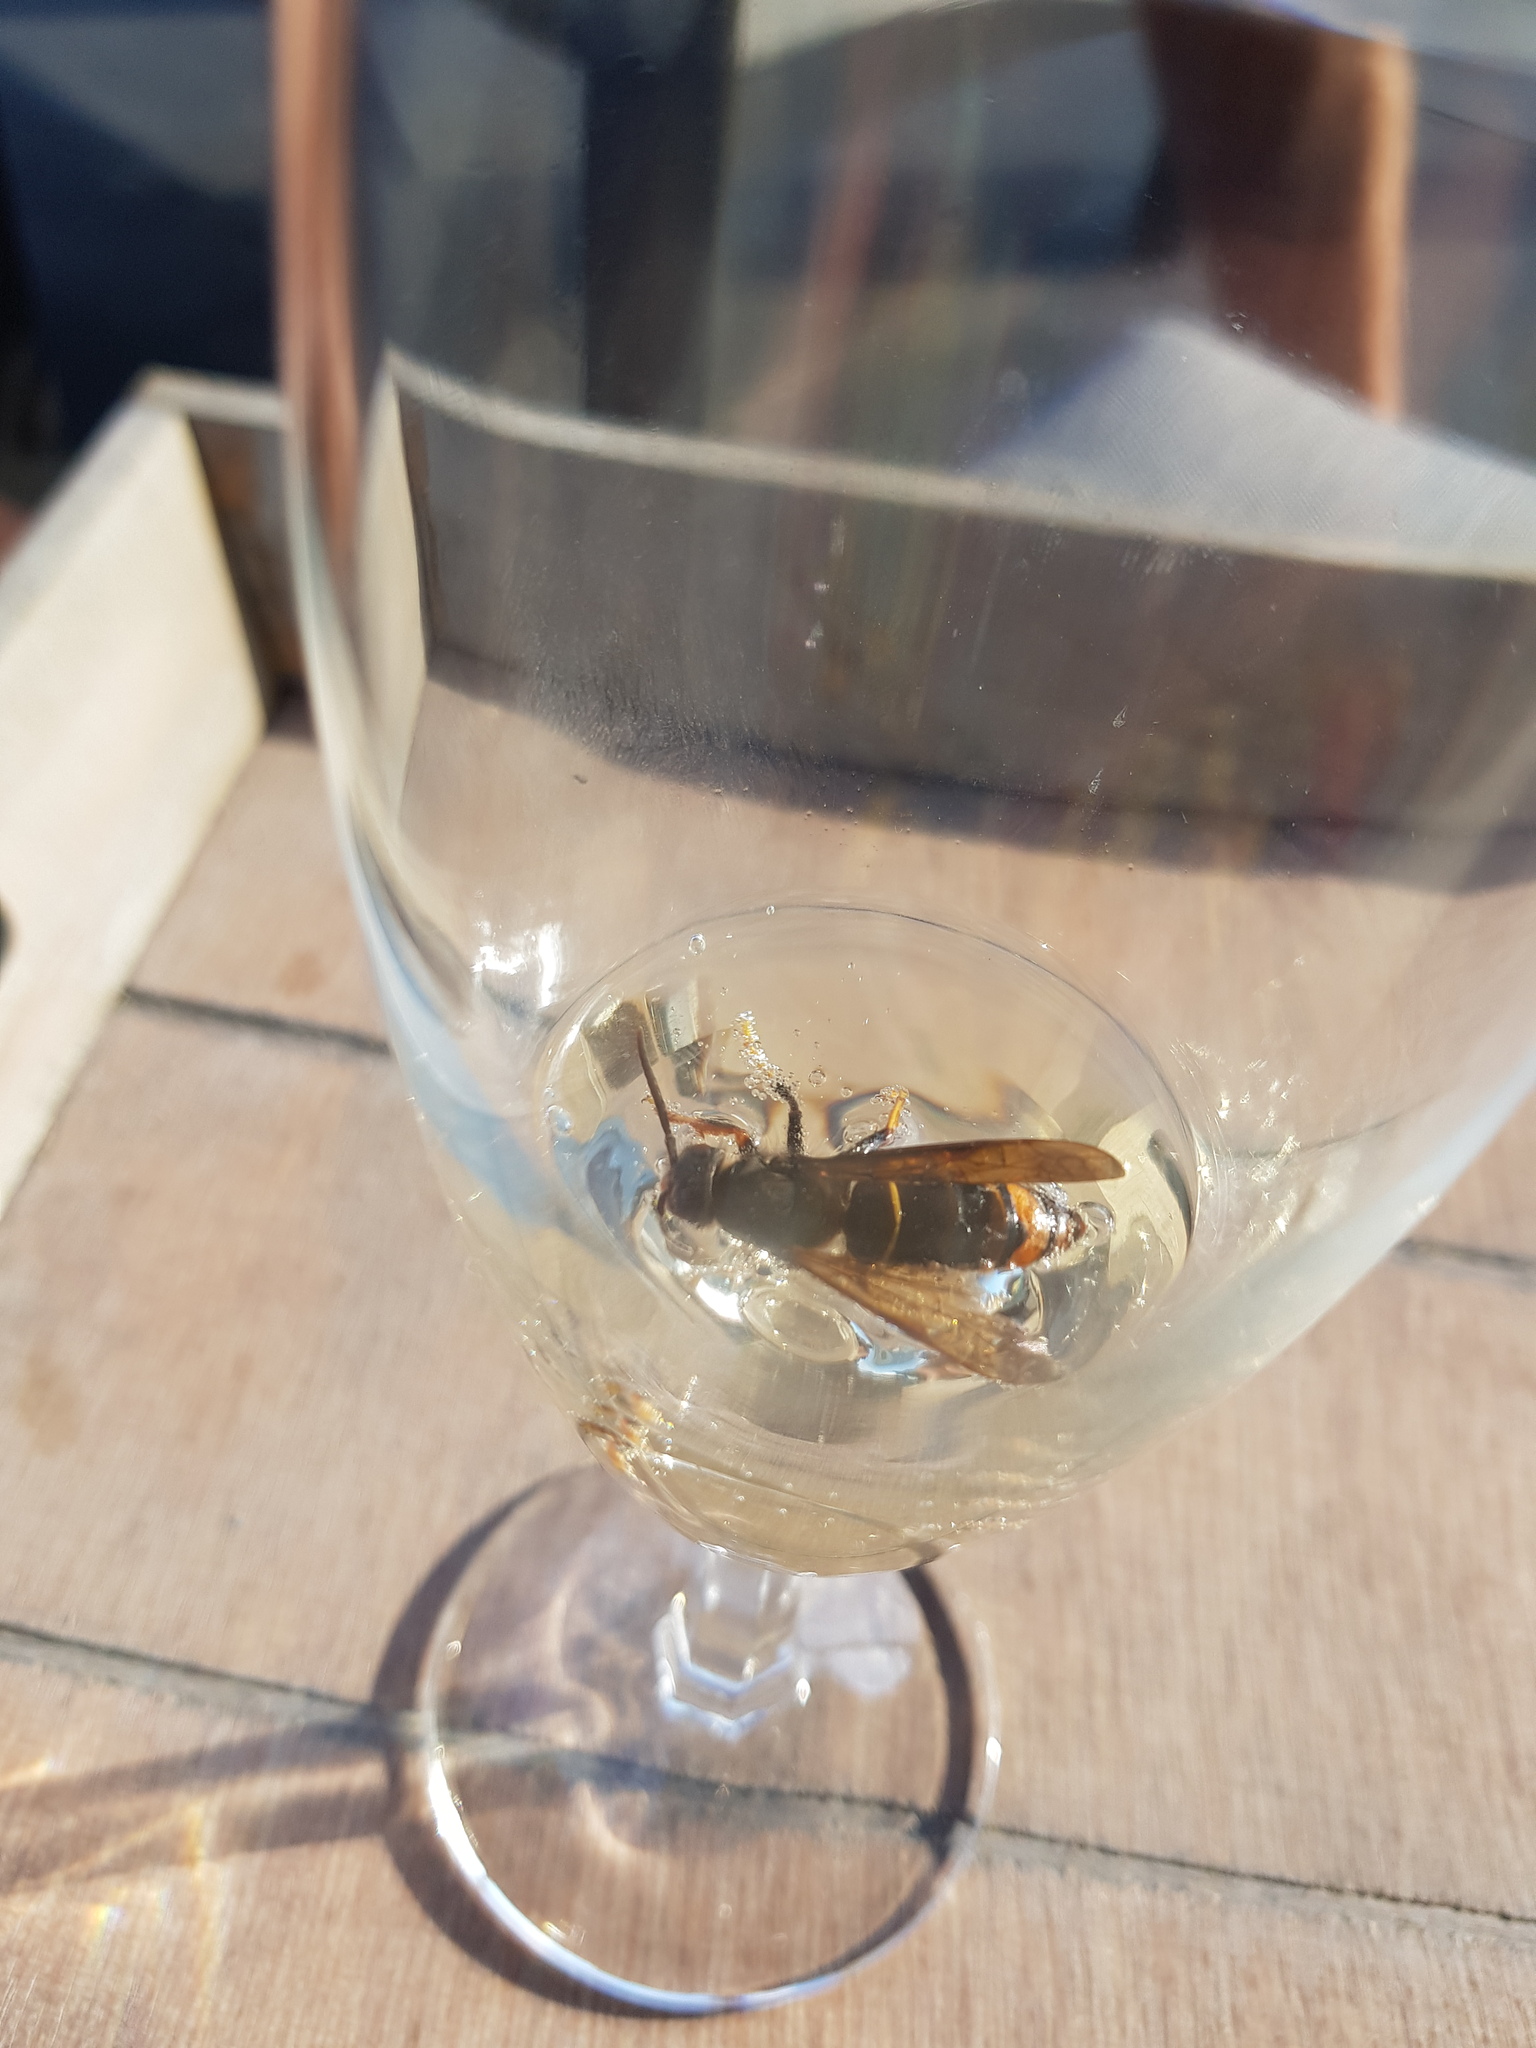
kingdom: Animalia
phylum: Arthropoda
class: Insecta
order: Hymenoptera
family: Vespidae
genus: Vespa
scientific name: Vespa velutina
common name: Asian hornet
